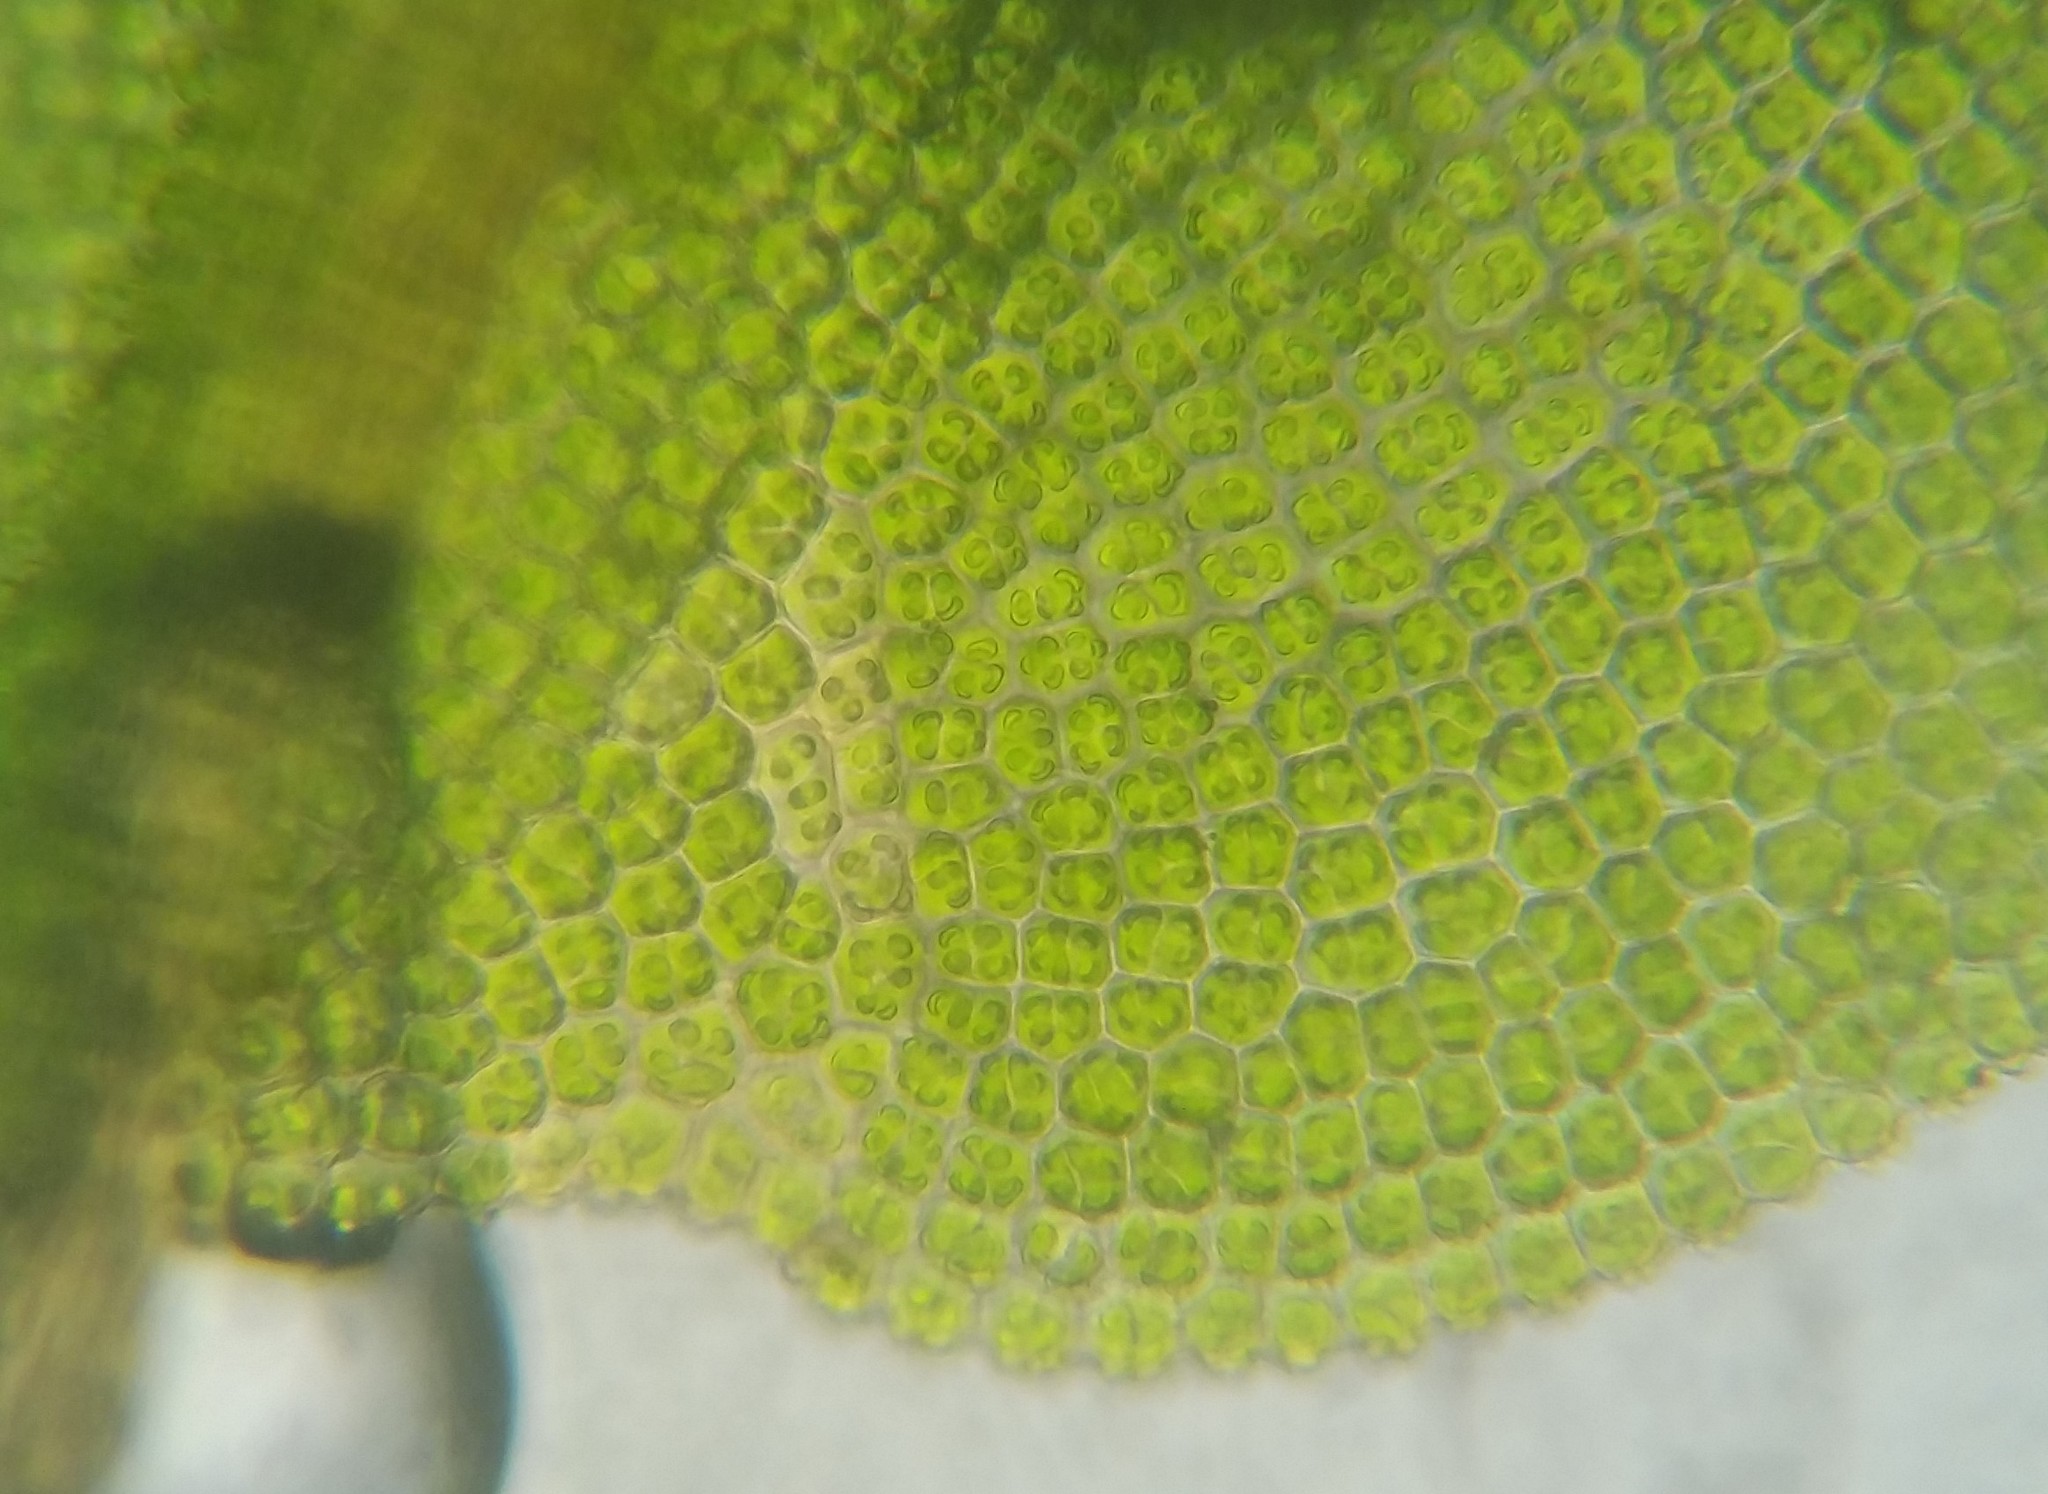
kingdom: Plantae
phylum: Bryophyta
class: Bryopsida
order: Pottiales
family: Pottiaceae
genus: Syntrichia
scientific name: Syntrichia laevipila
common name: Small hairy screw-moss
